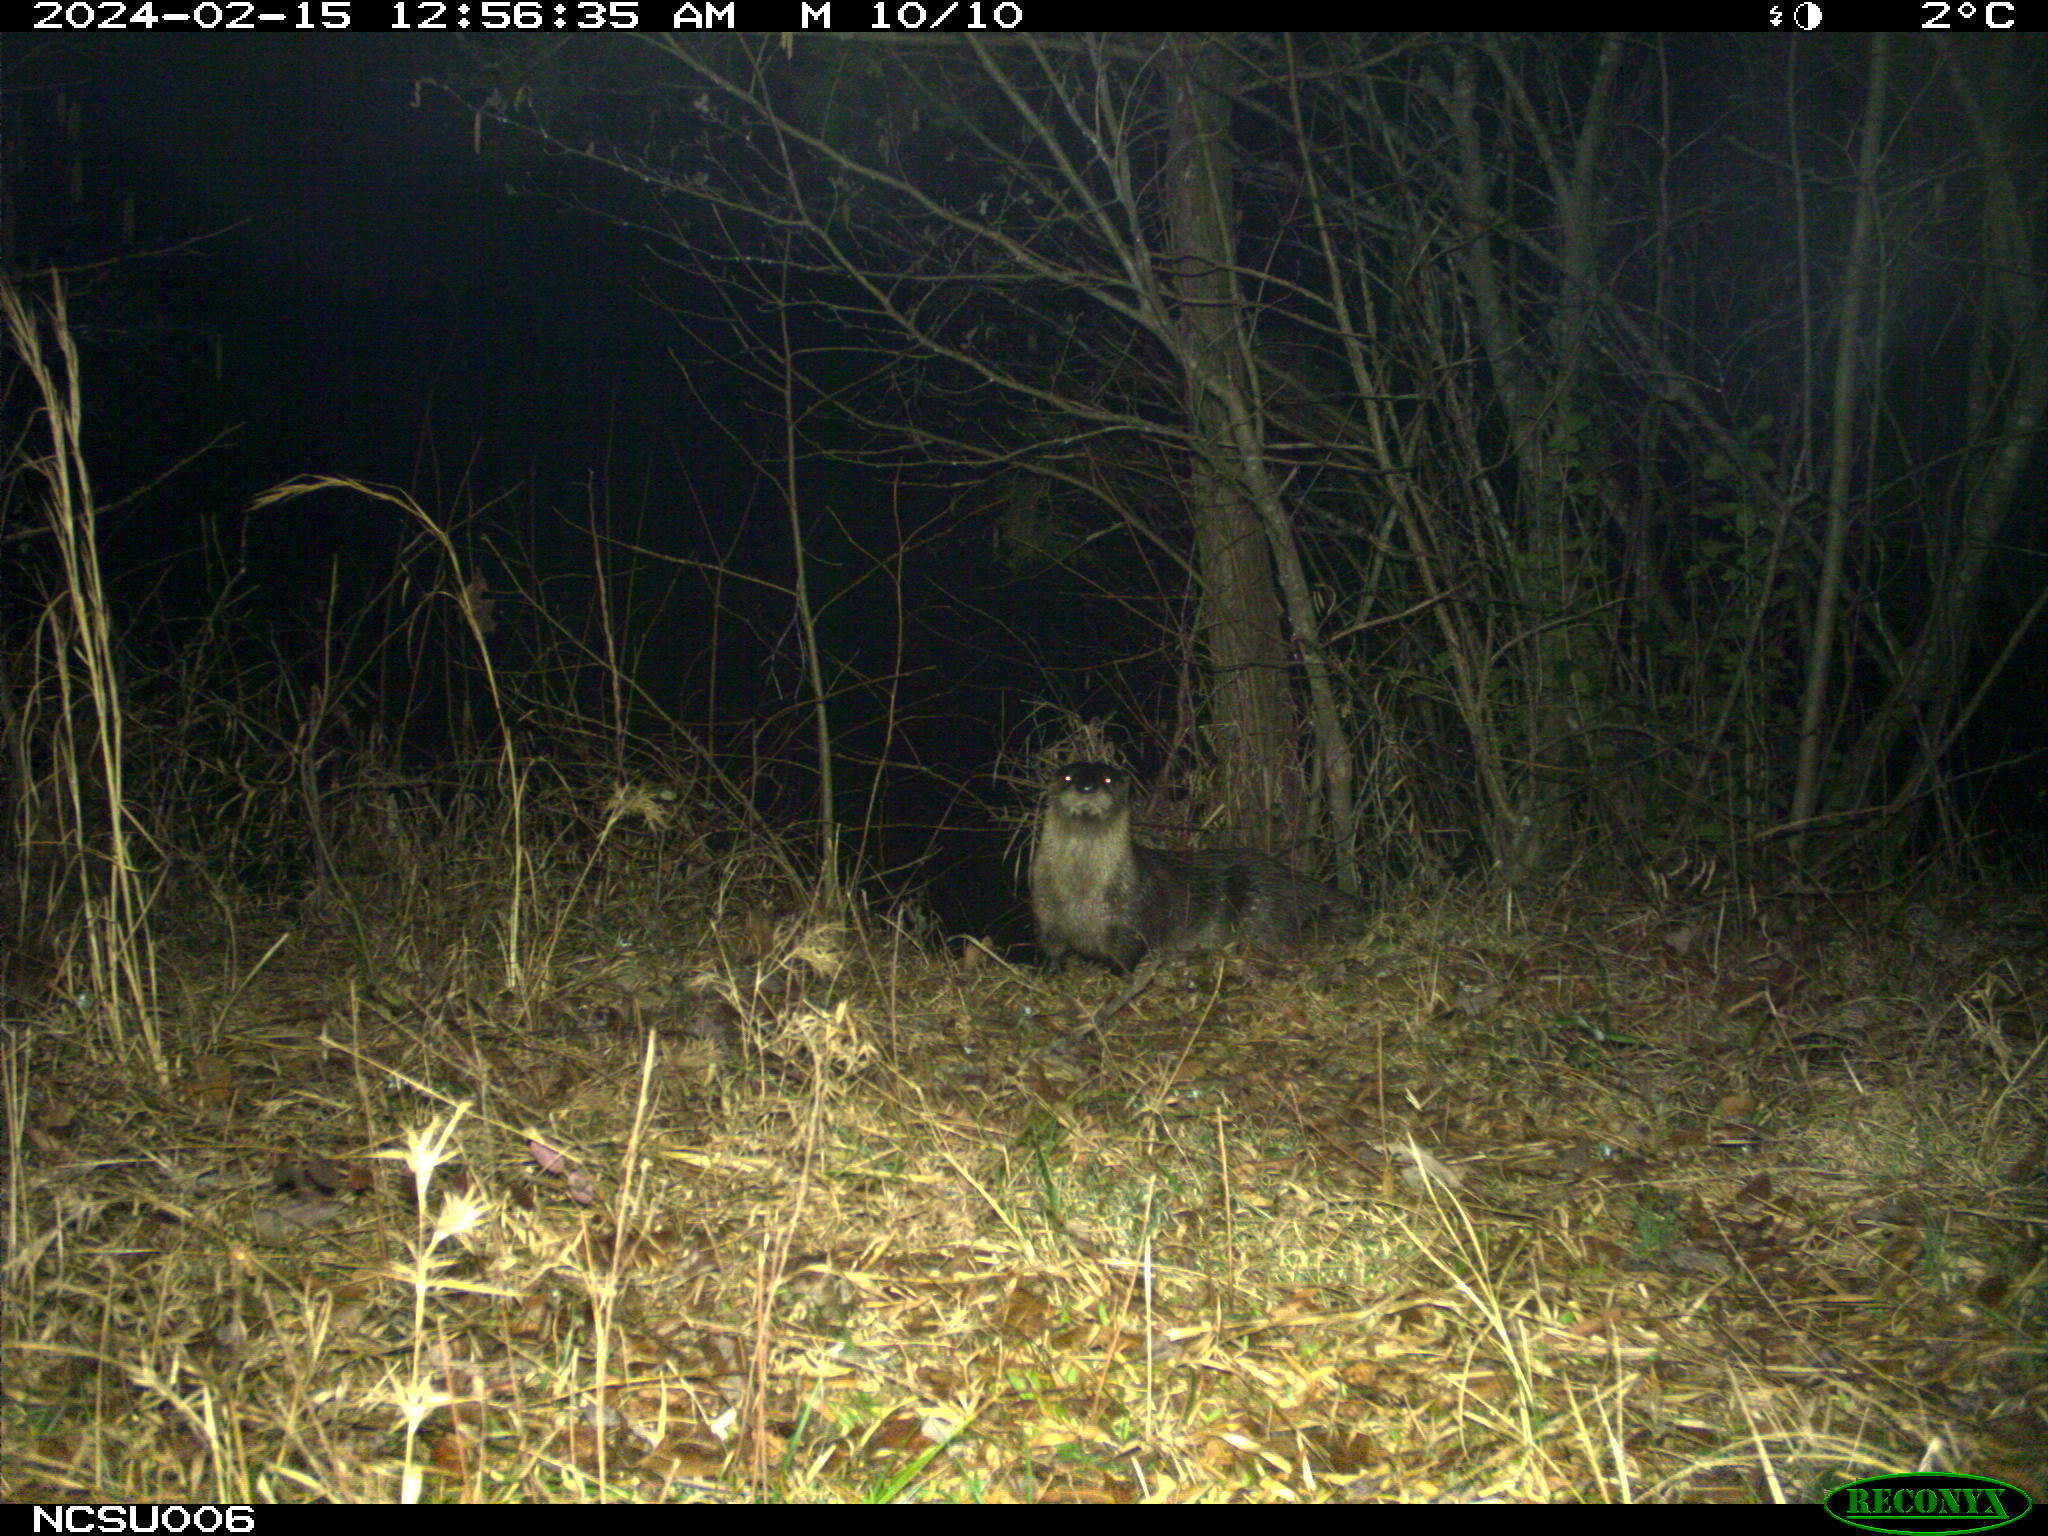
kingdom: Animalia
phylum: Chordata
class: Mammalia
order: Carnivora
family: Mustelidae
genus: Lontra
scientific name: Lontra canadensis
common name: North american river otter
